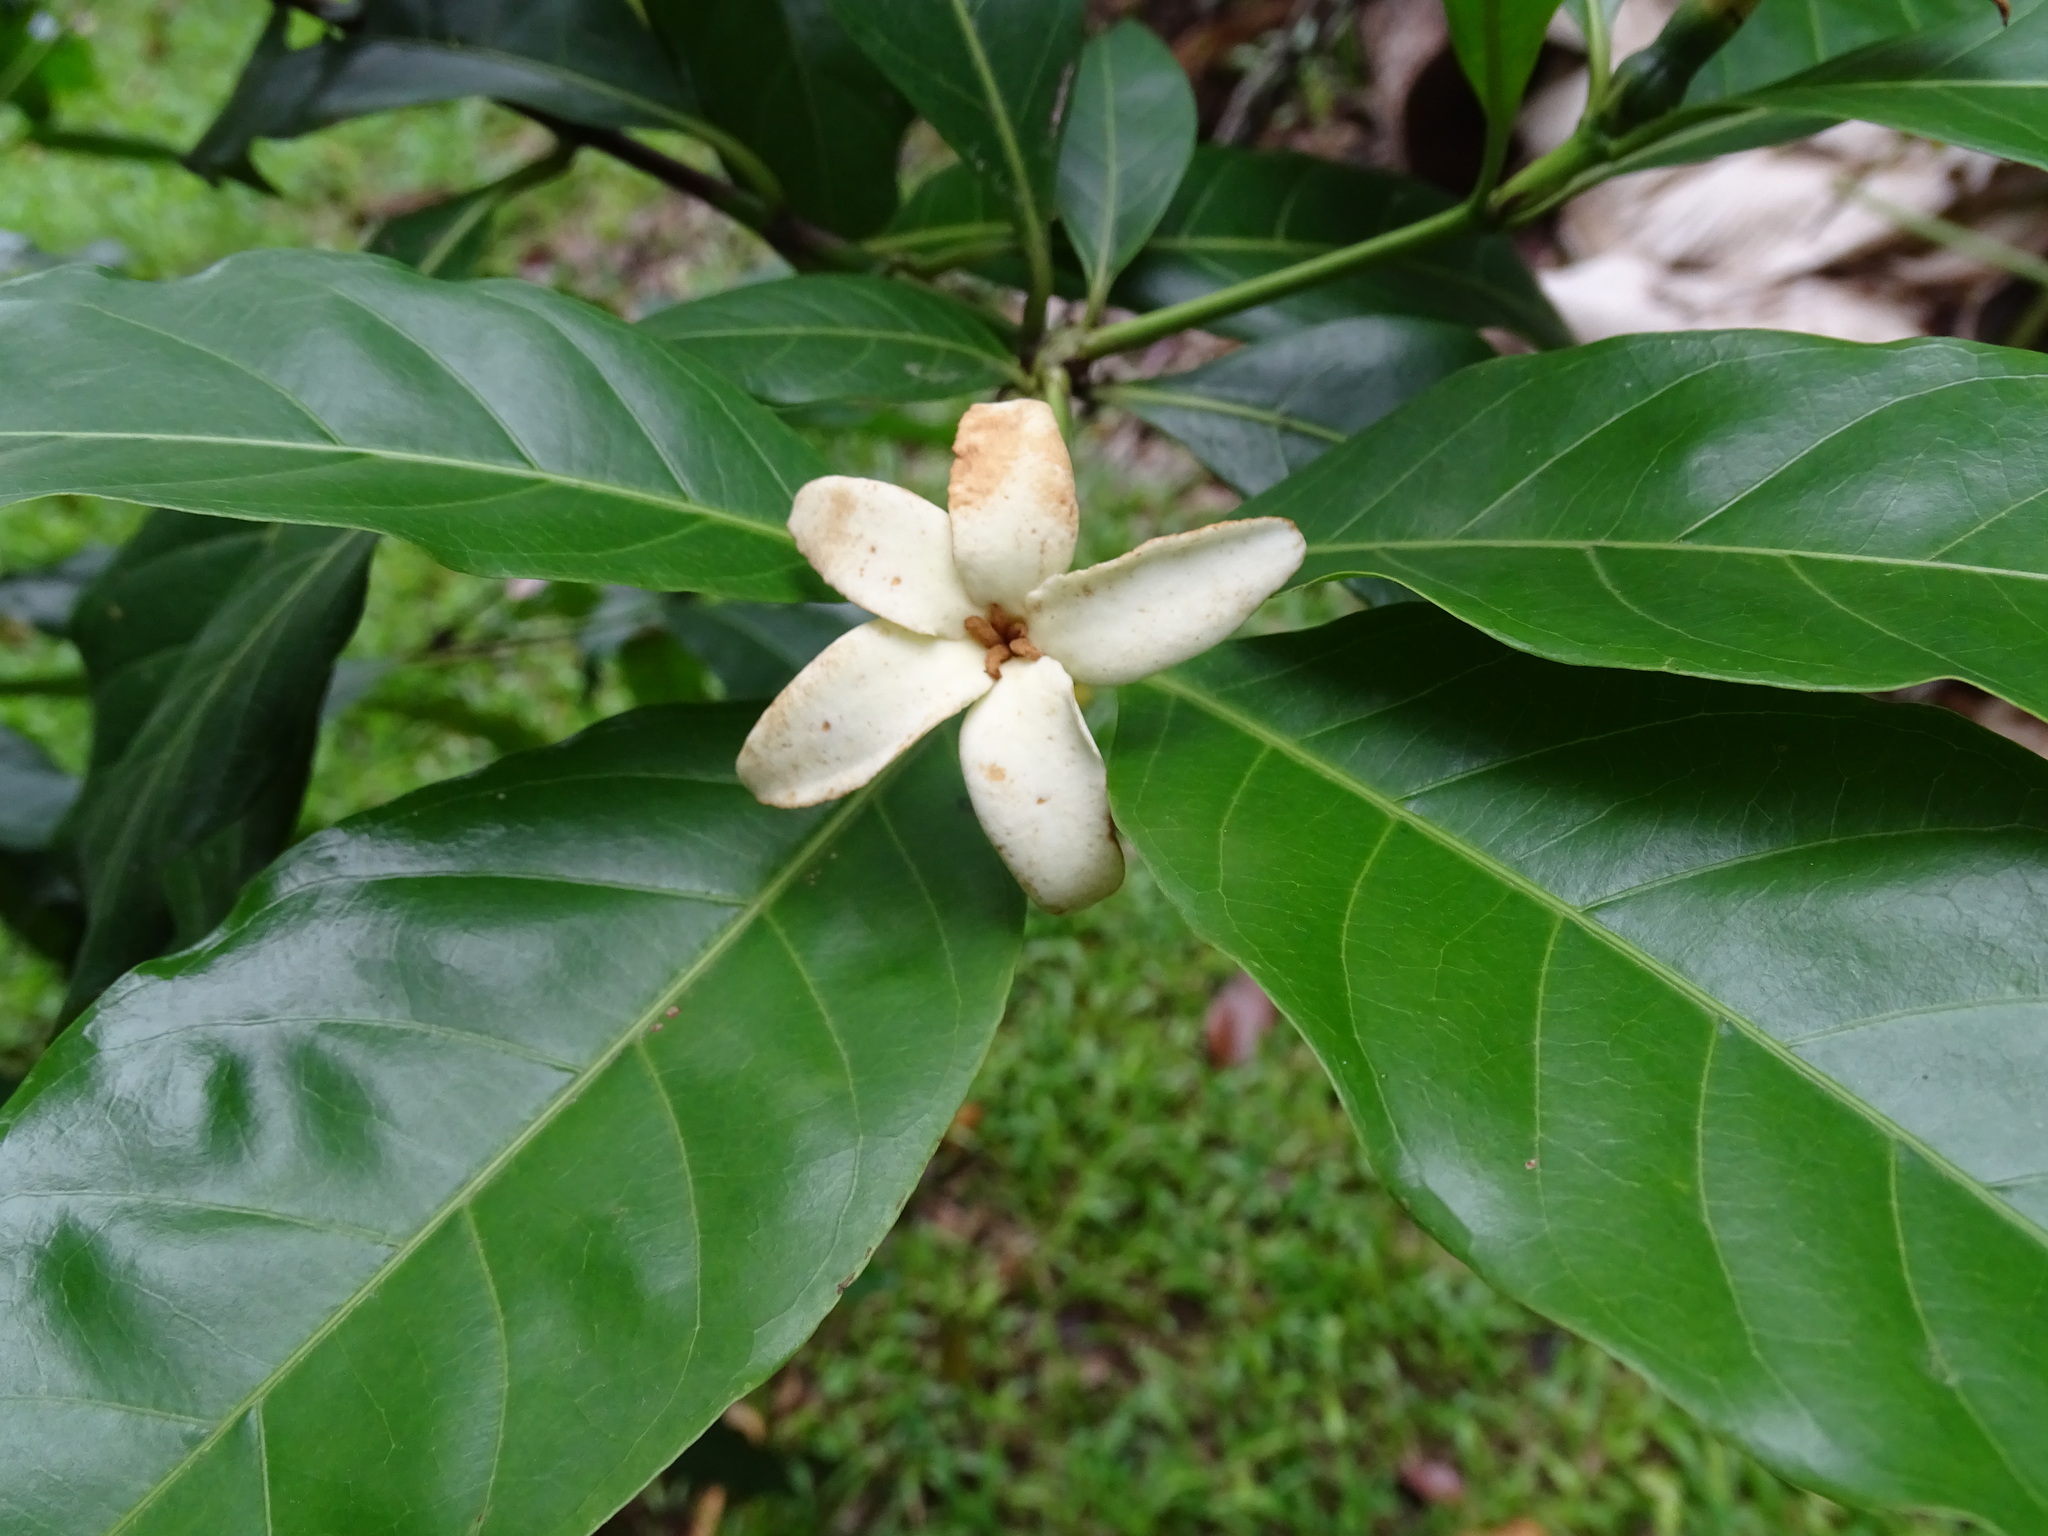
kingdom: Plantae
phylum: Tracheophyta
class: Magnoliopsida
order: Gentianales
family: Rubiaceae
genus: Alibertia
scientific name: Alibertia edulis
